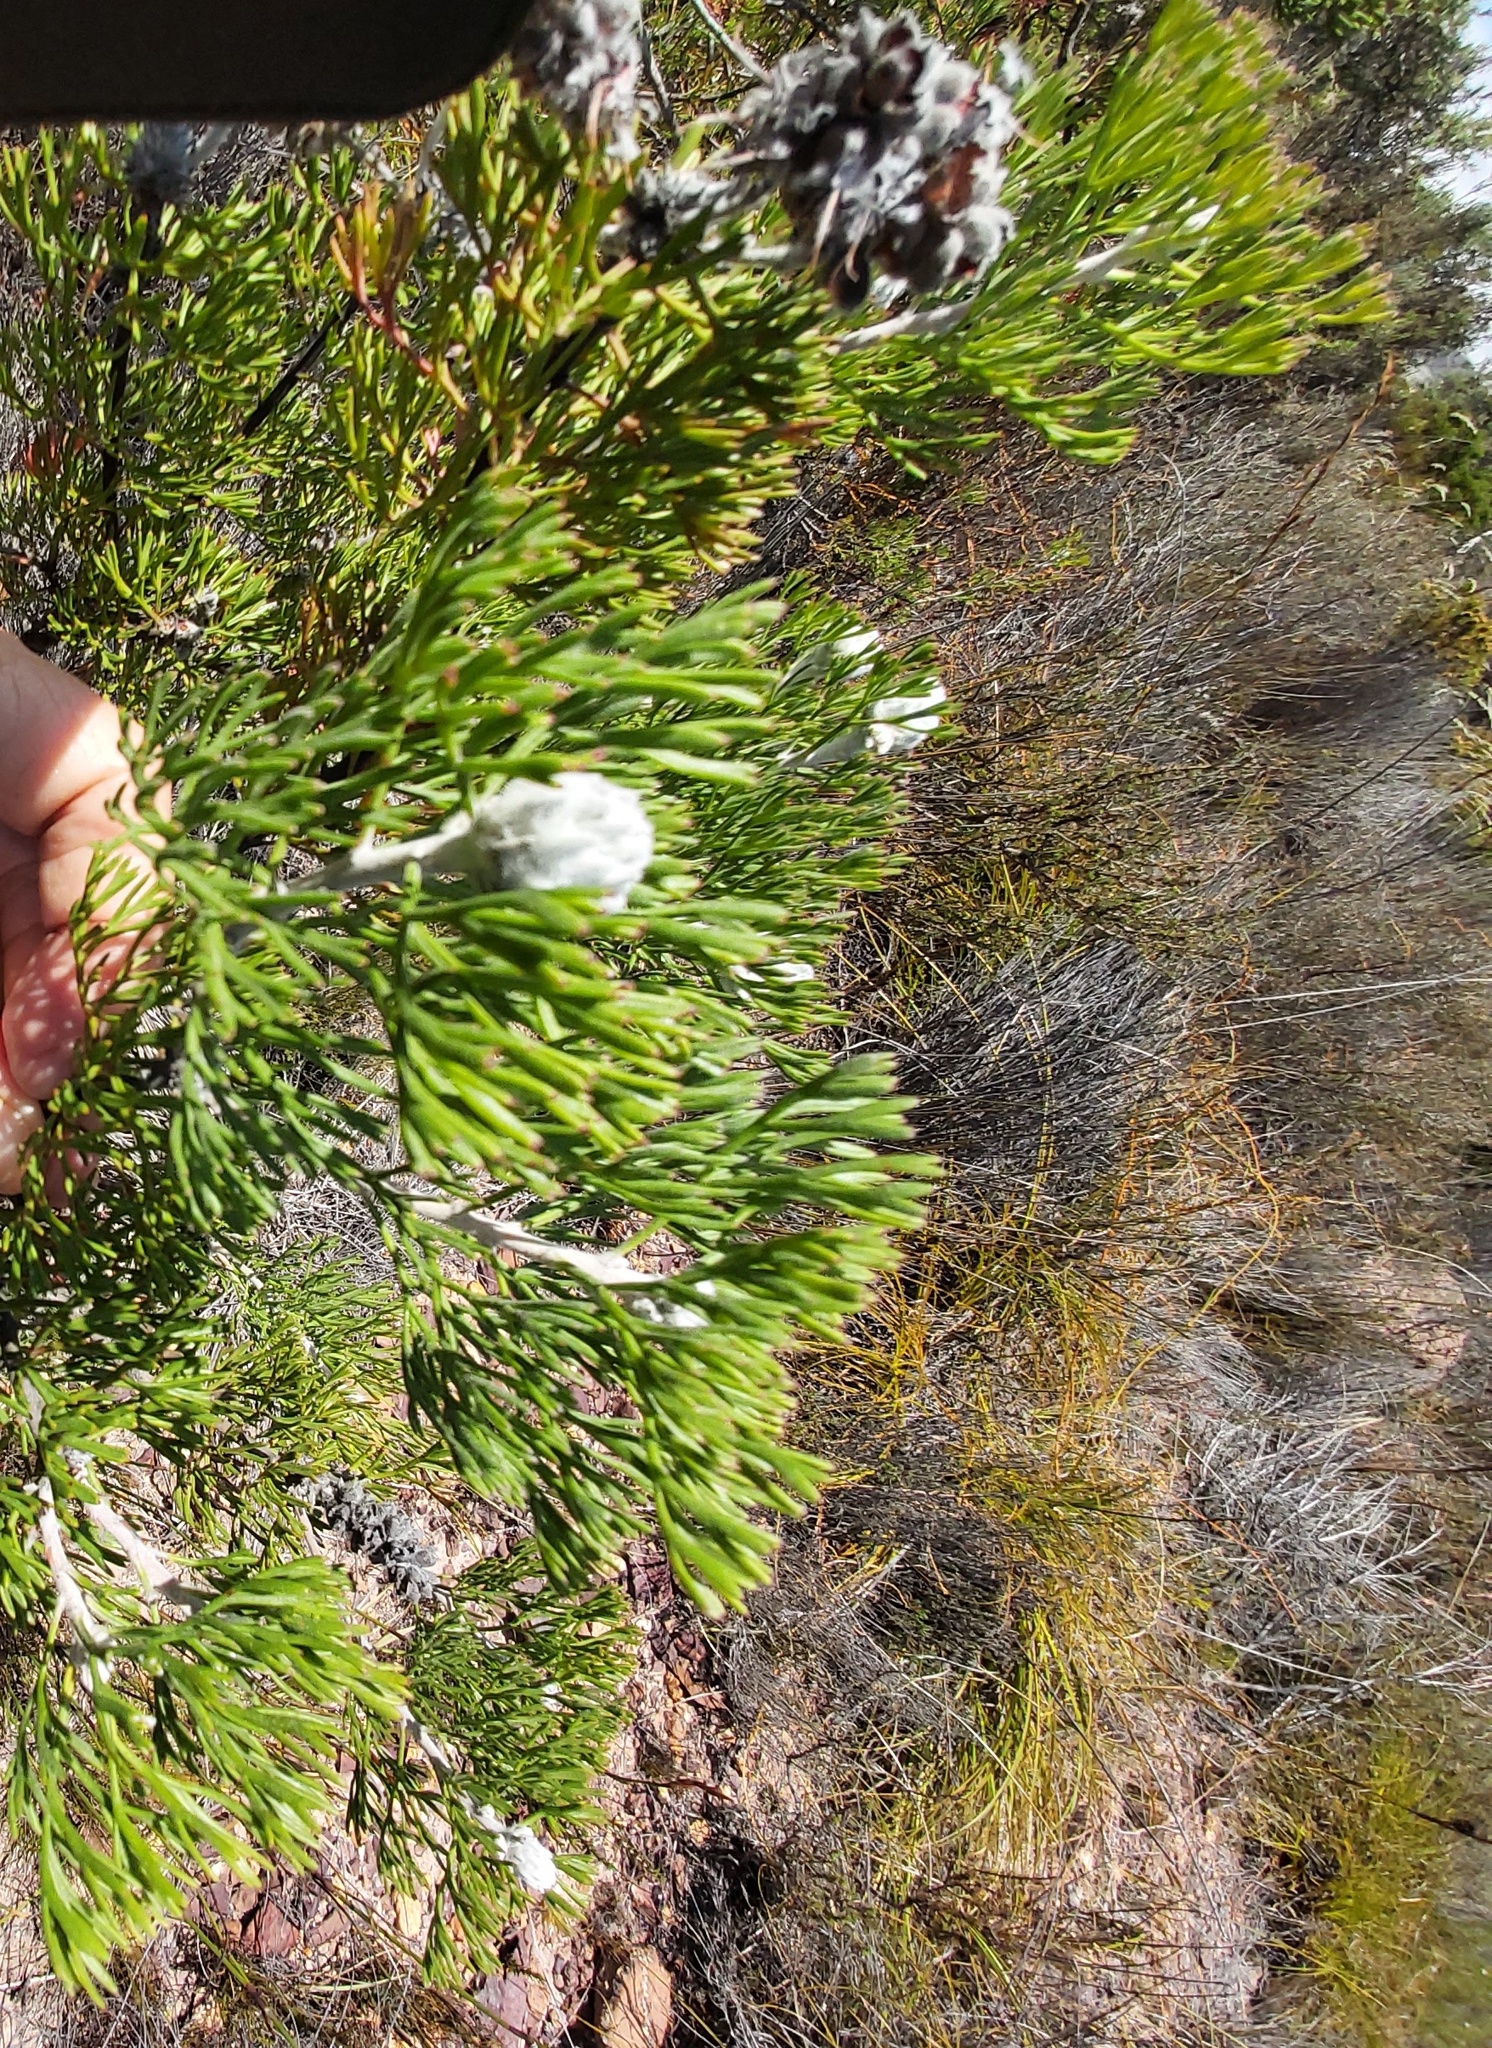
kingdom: Plantae
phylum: Tracheophyta
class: Magnoliopsida
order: Proteales
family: Proteaceae
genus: Paranomus
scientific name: Paranomus bolusii
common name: Overberg sceptre
